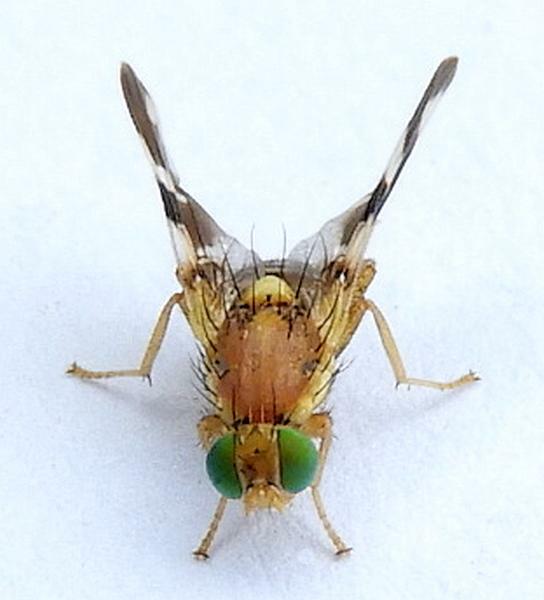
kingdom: Animalia
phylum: Arthropoda
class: Insecta
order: Diptera
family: Tephritidae
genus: Rhagoletis
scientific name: Rhagoletis suavis
